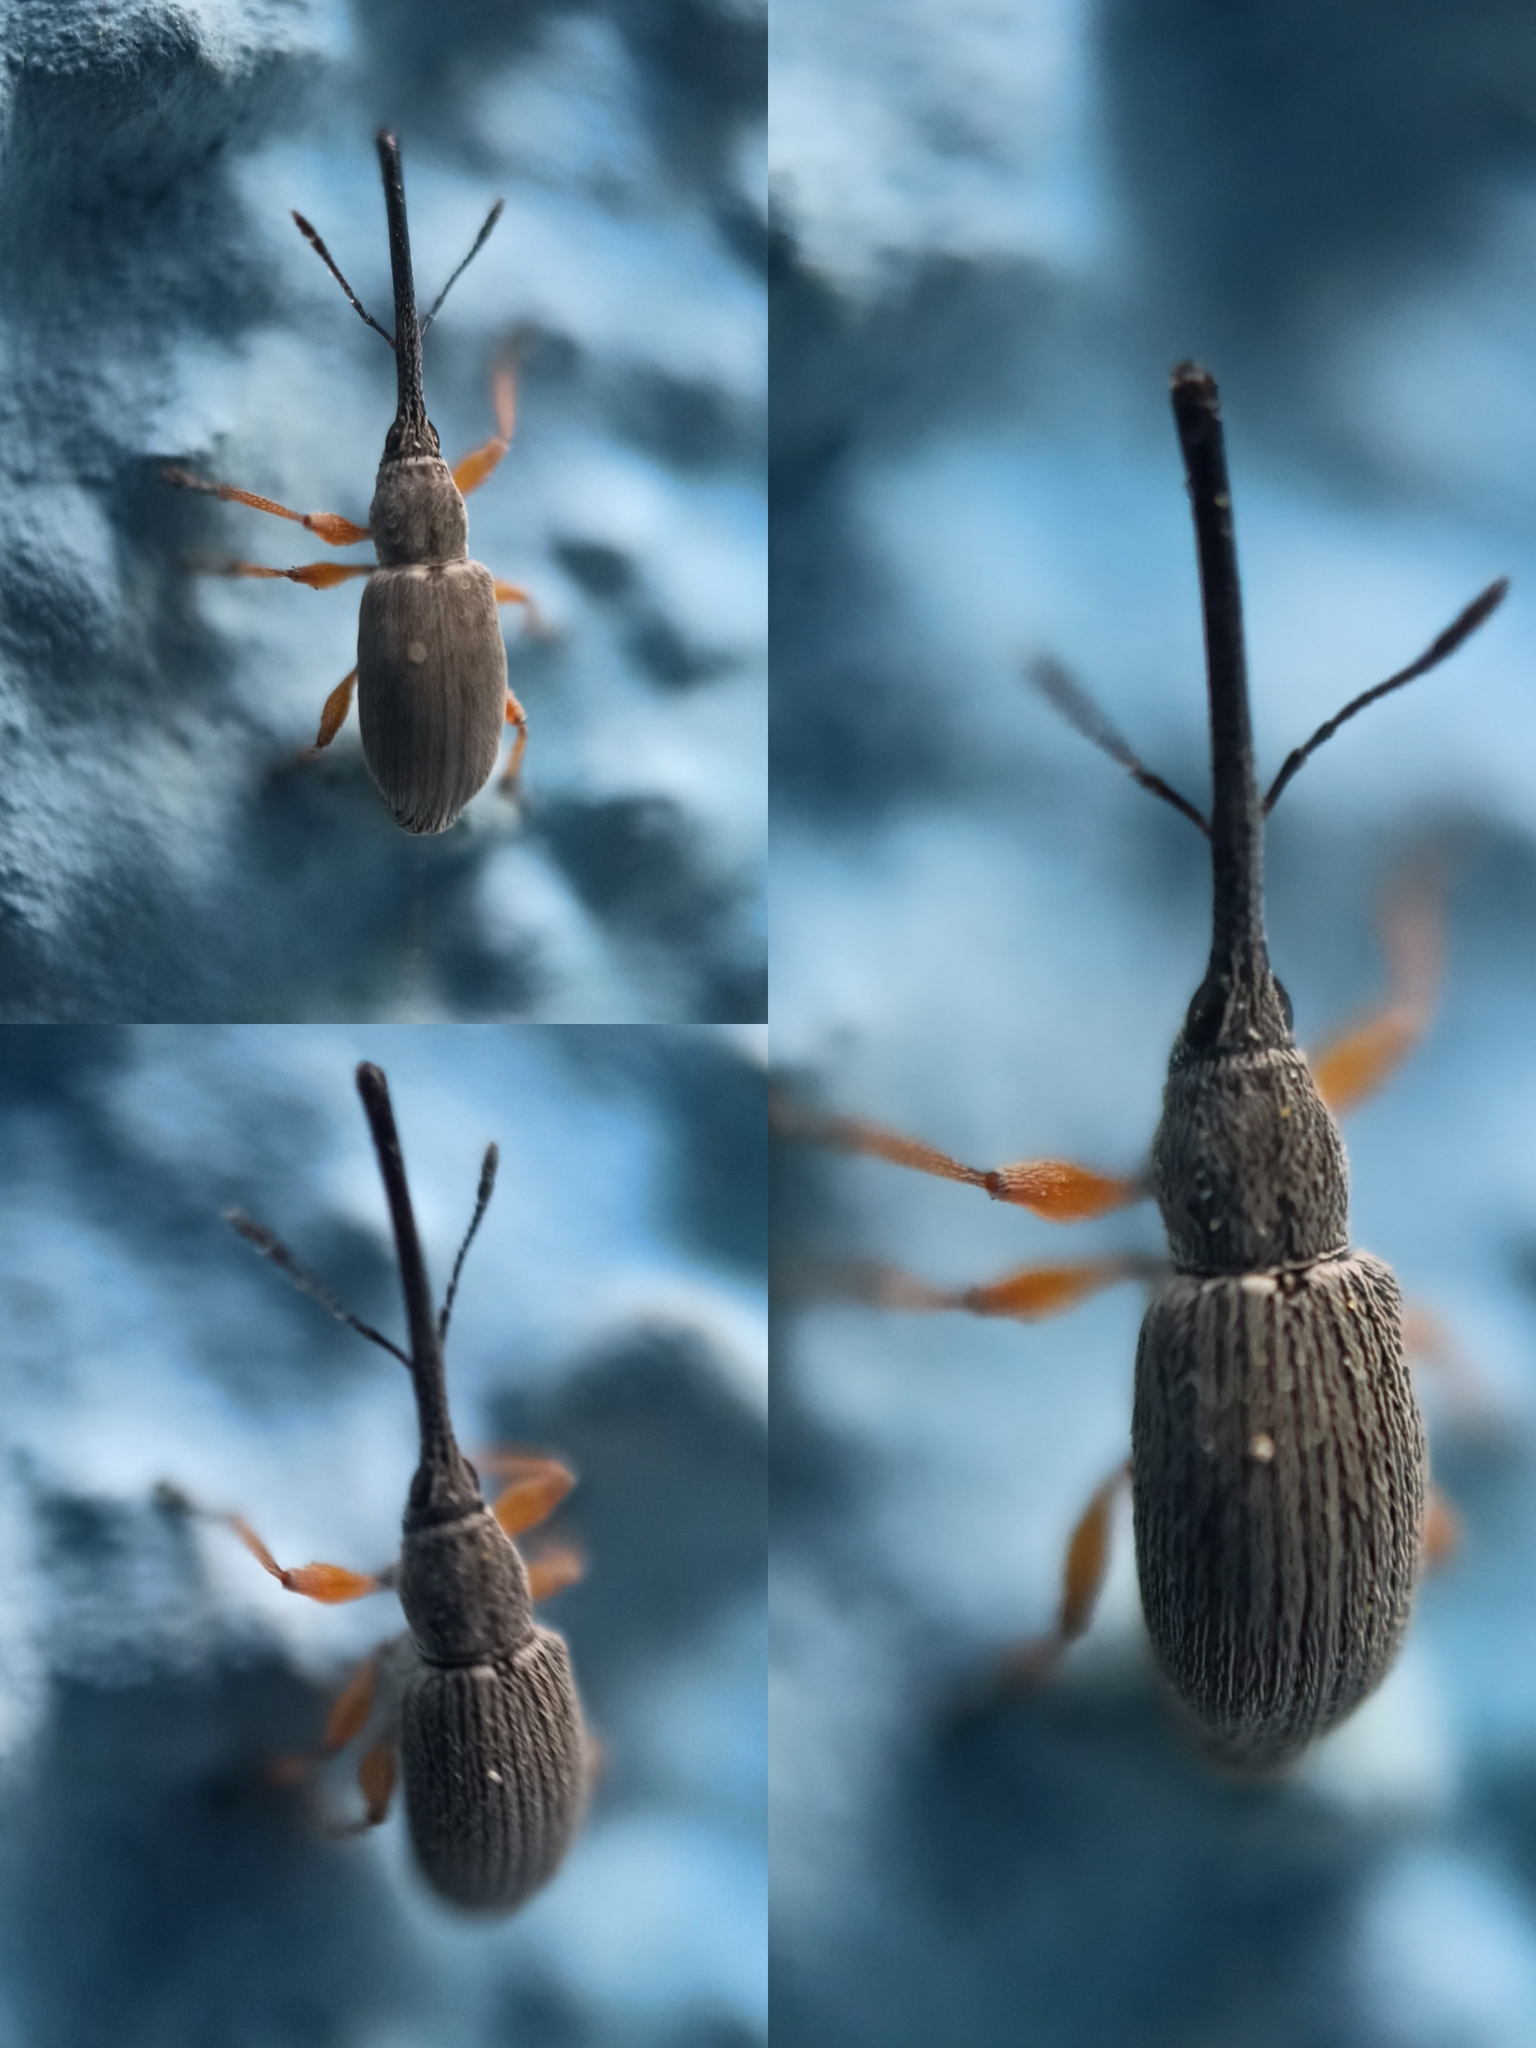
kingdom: Animalia
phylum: Arthropoda
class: Insecta
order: Coleoptera
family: Brentidae
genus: Rhopalapion
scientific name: Rhopalapion longirostre
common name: Hollyhock weevil
